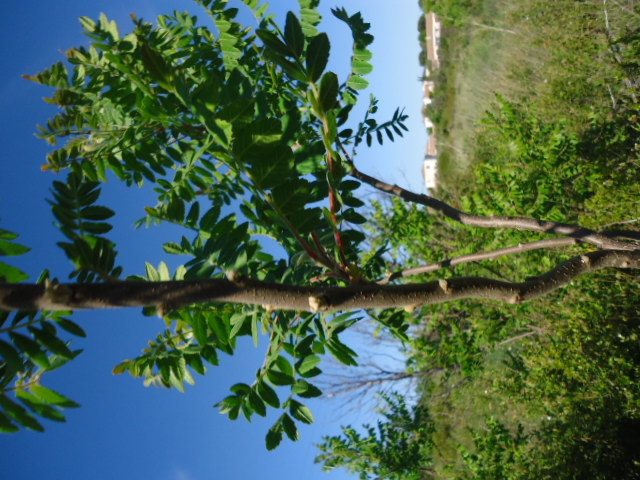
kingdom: Plantae
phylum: Tracheophyta
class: Magnoliopsida
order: Sapindales
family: Anacardiaceae
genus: Rhus
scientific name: Rhus coriaria
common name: Tanner's sumach
